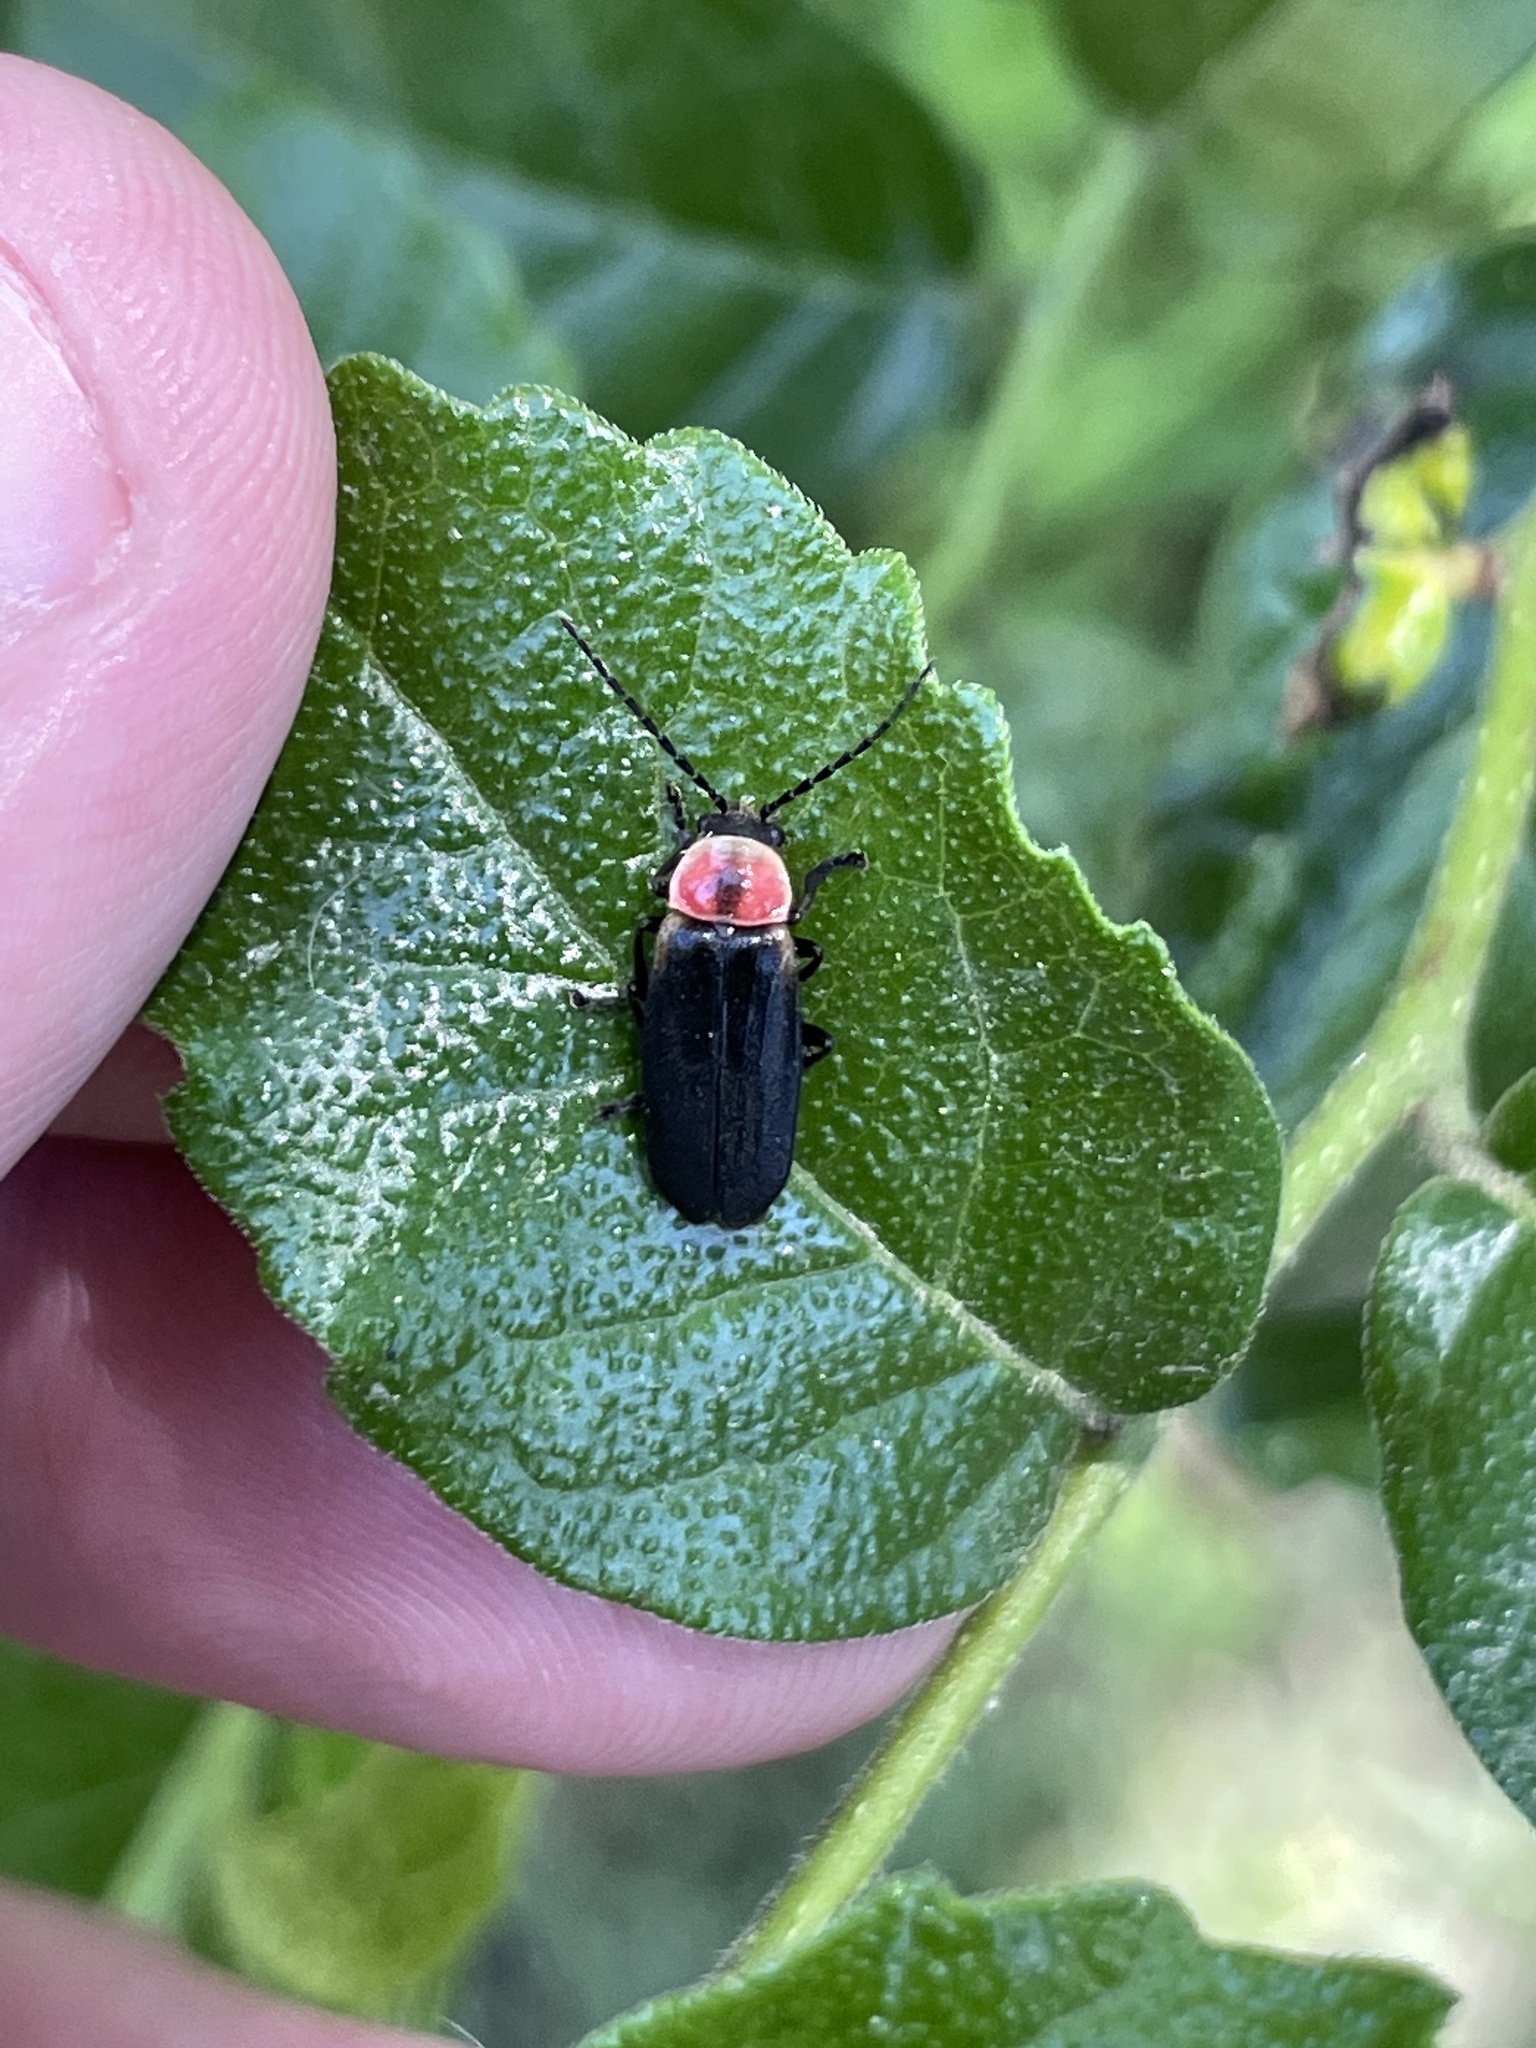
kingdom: Animalia
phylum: Arthropoda
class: Insecta
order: Coleoptera
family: Cantharidae
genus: Discodon
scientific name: Discodon planicolle
